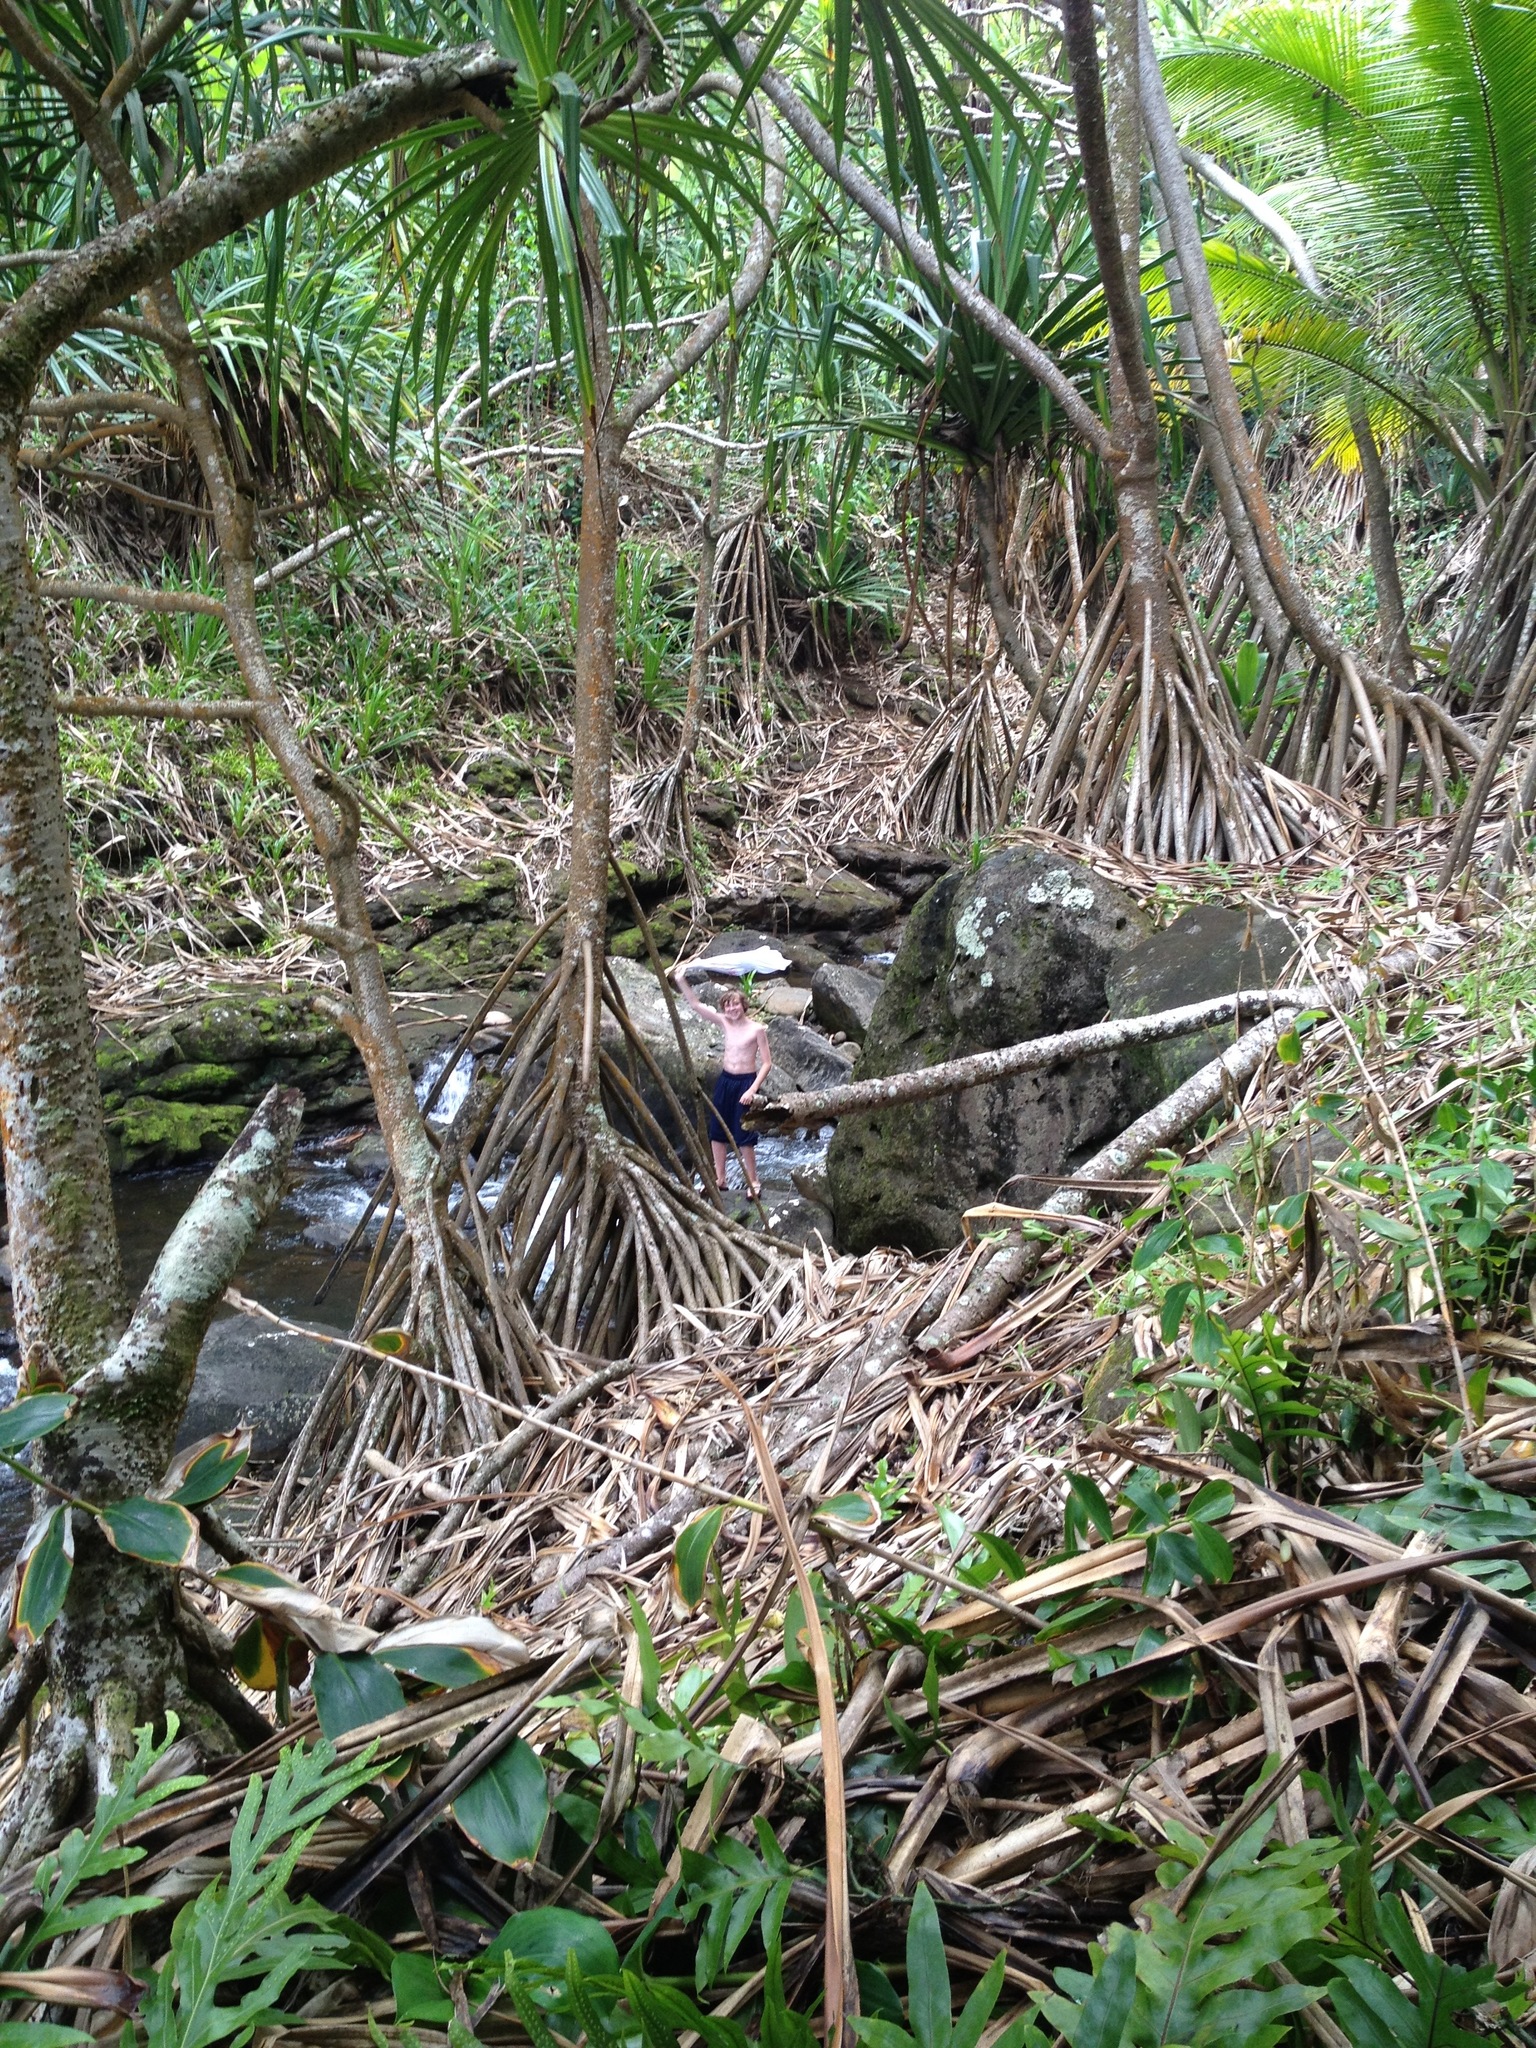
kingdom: Plantae
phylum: Tracheophyta
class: Liliopsida
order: Pandanales
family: Pandanaceae
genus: Pandanus
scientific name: Pandanus tectorius
